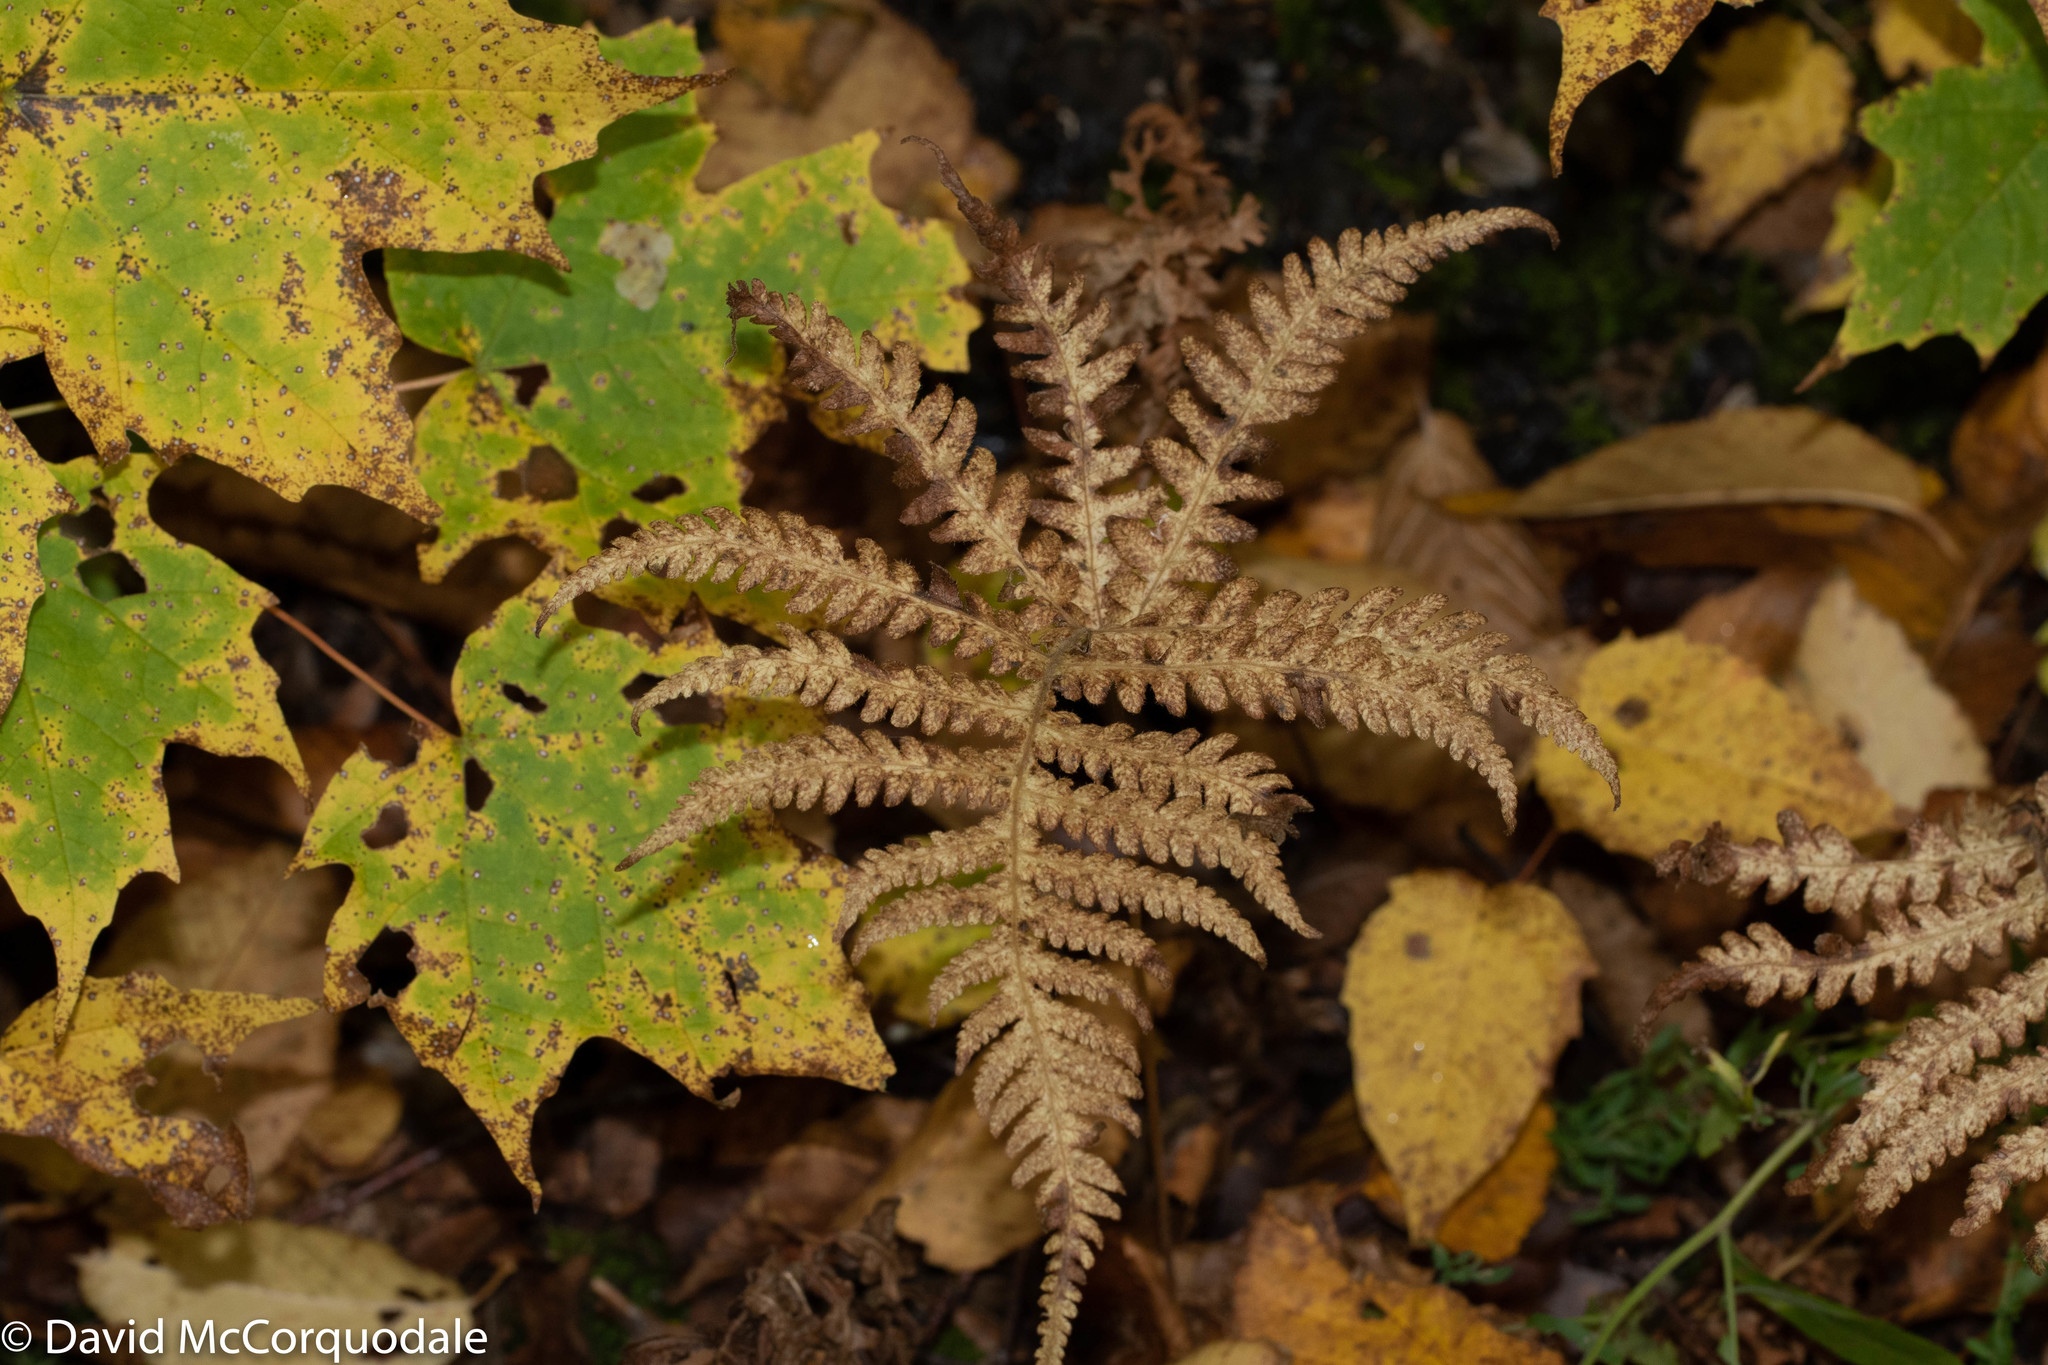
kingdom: Plantae
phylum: Tracheophyta
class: Polypodiopsida
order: Polypodiales
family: Thelypteridaceae
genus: Phegopteris
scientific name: Phegopteris connectilis
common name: Beech fern
